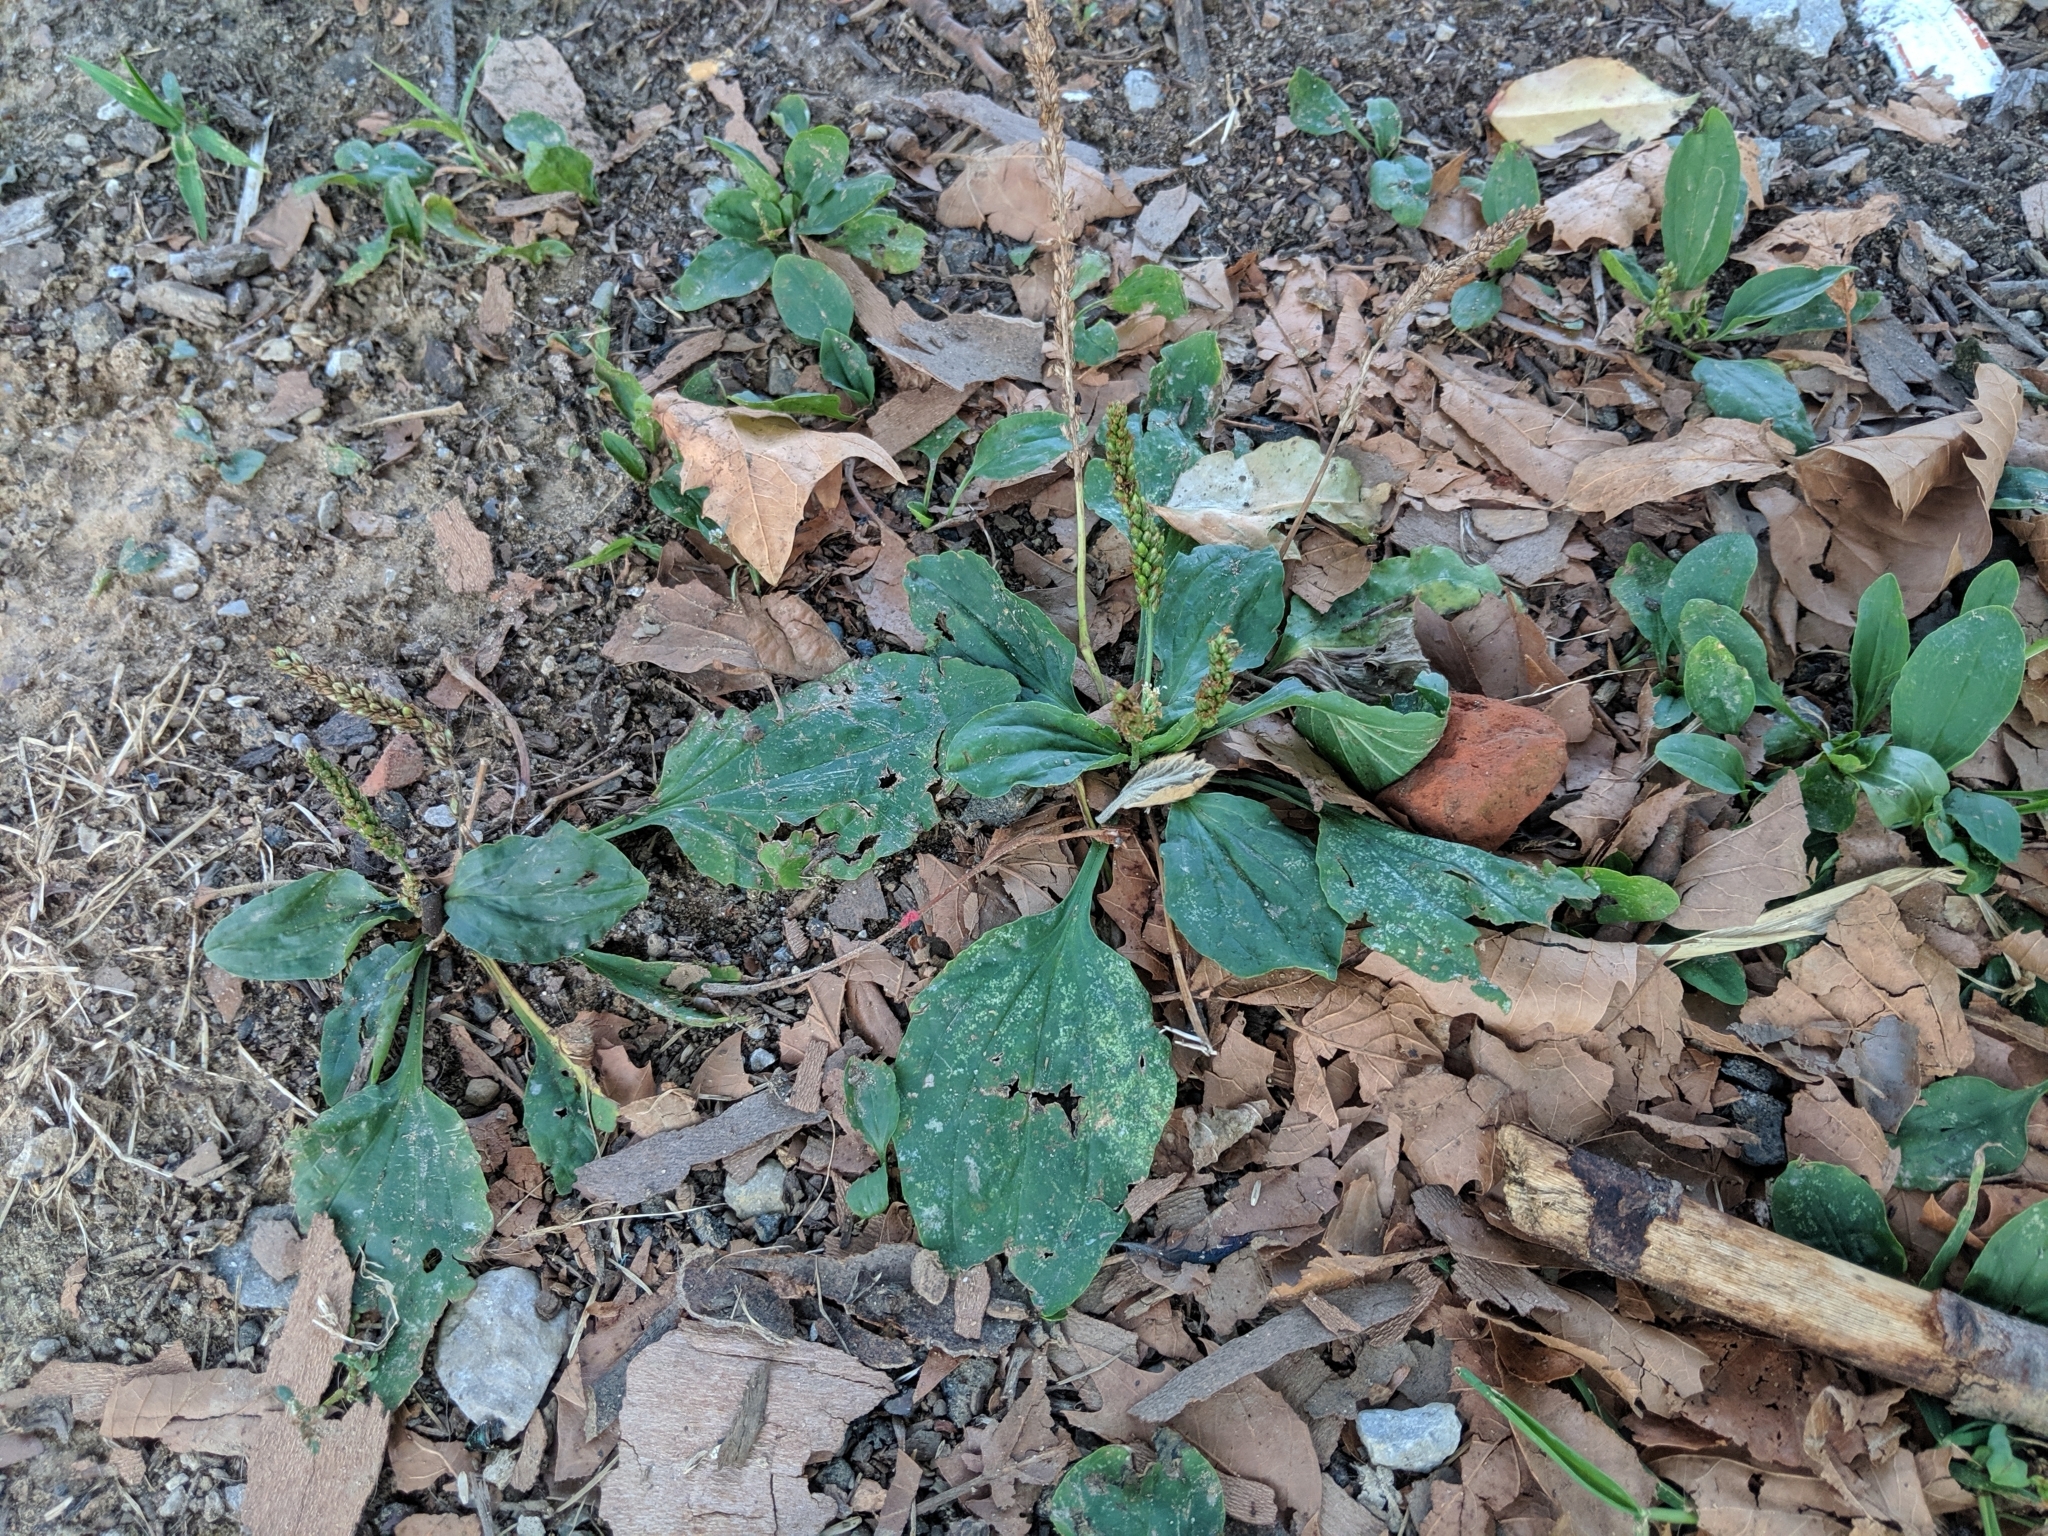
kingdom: Plantae
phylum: Tracheophyta
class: Magnoliopsida
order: Lamiales
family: Plantaginaceae
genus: Plantago
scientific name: Plantago major
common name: Common plantain
